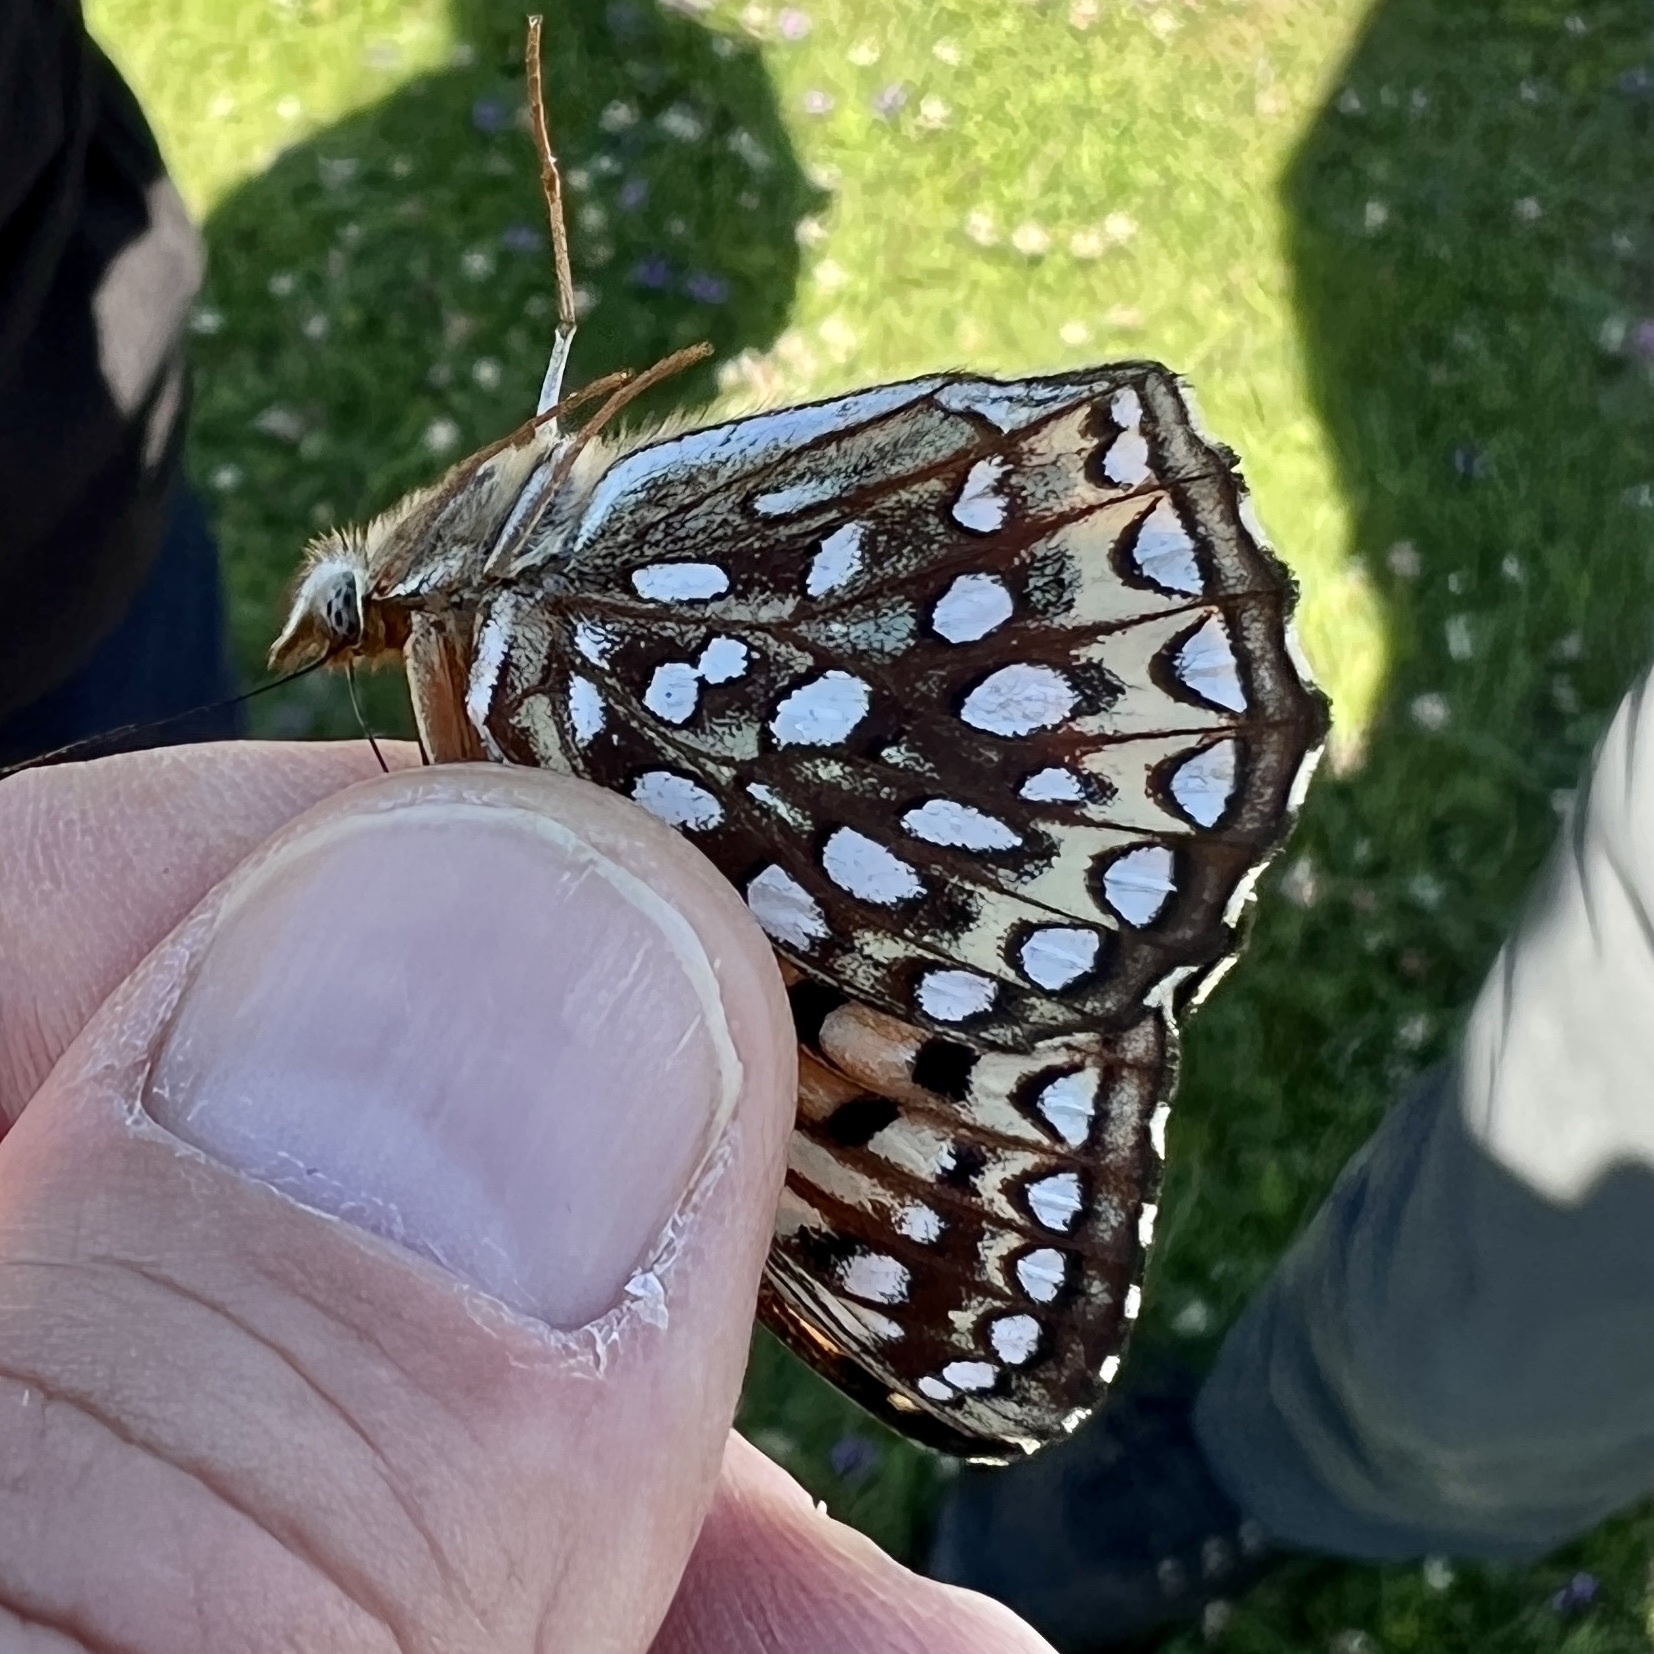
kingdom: Animalia
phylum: Arthropoda
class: Insecta
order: Lepidoptera
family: Nymphalidae
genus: Speyeria
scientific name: Speyeria atlantis
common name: Atlantis fritillary
